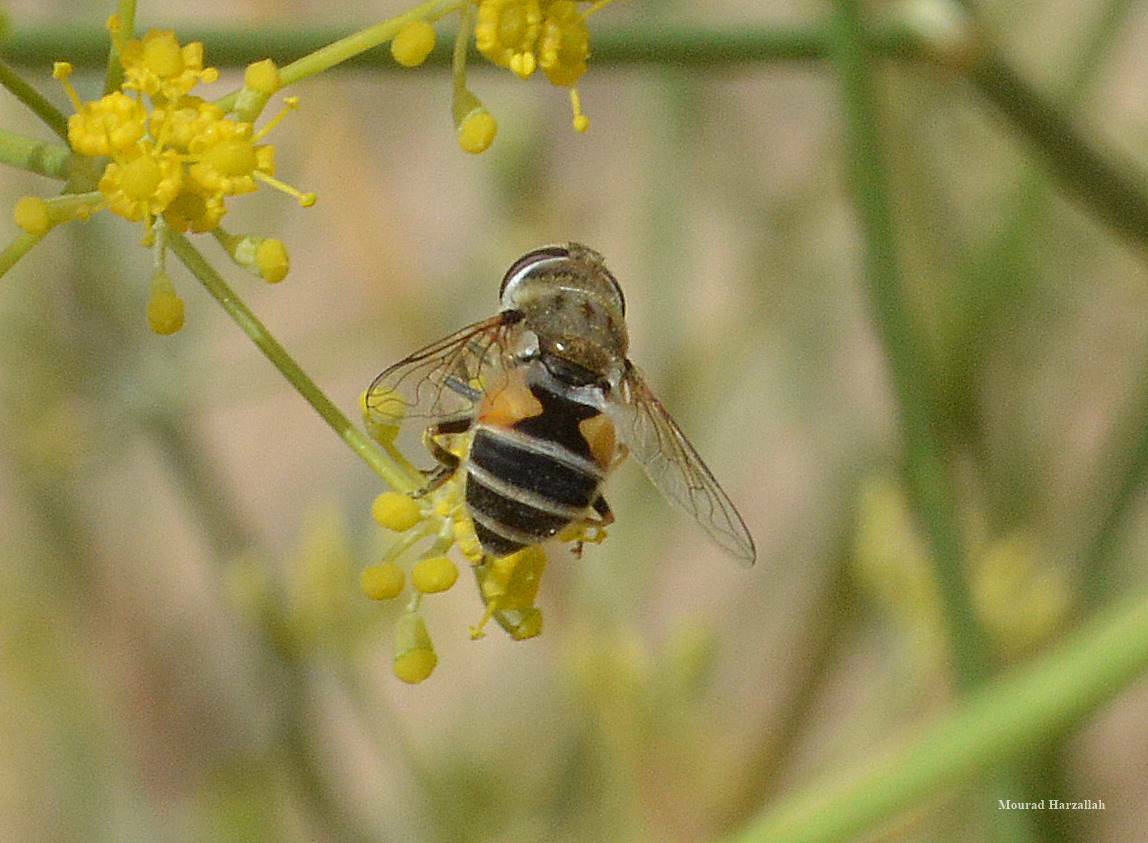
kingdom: Animalia
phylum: Arthropoda
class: Insecta
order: Diptera
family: Syrphidae
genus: Eristalis
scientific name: Eristalis arbustorum
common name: Hover fly
